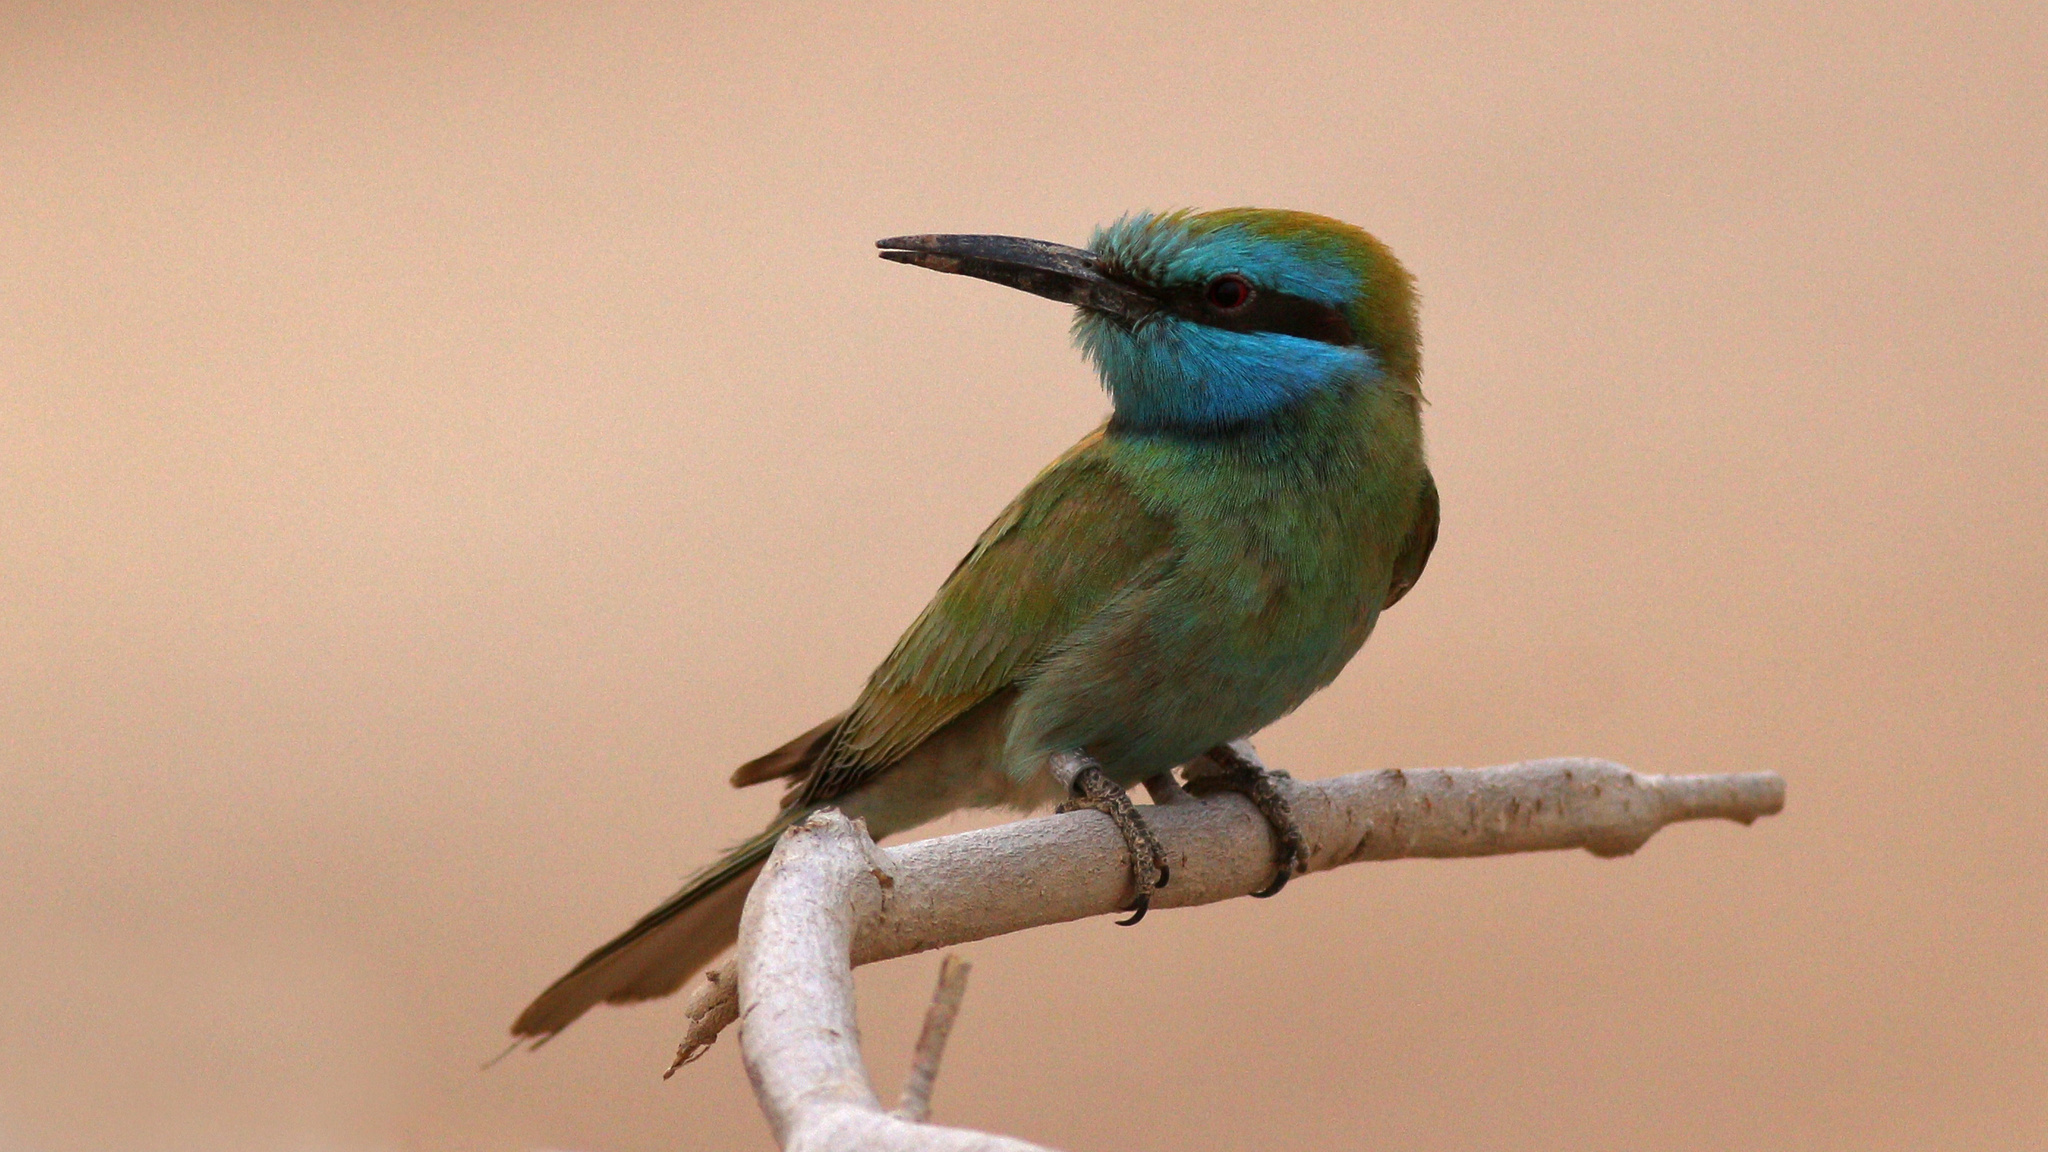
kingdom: Animalia
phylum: Chordata
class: Aves
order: Coraciiformes
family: Meropidae
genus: Merops
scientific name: Merops cyanophrys
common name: Arabian green bee-eater
